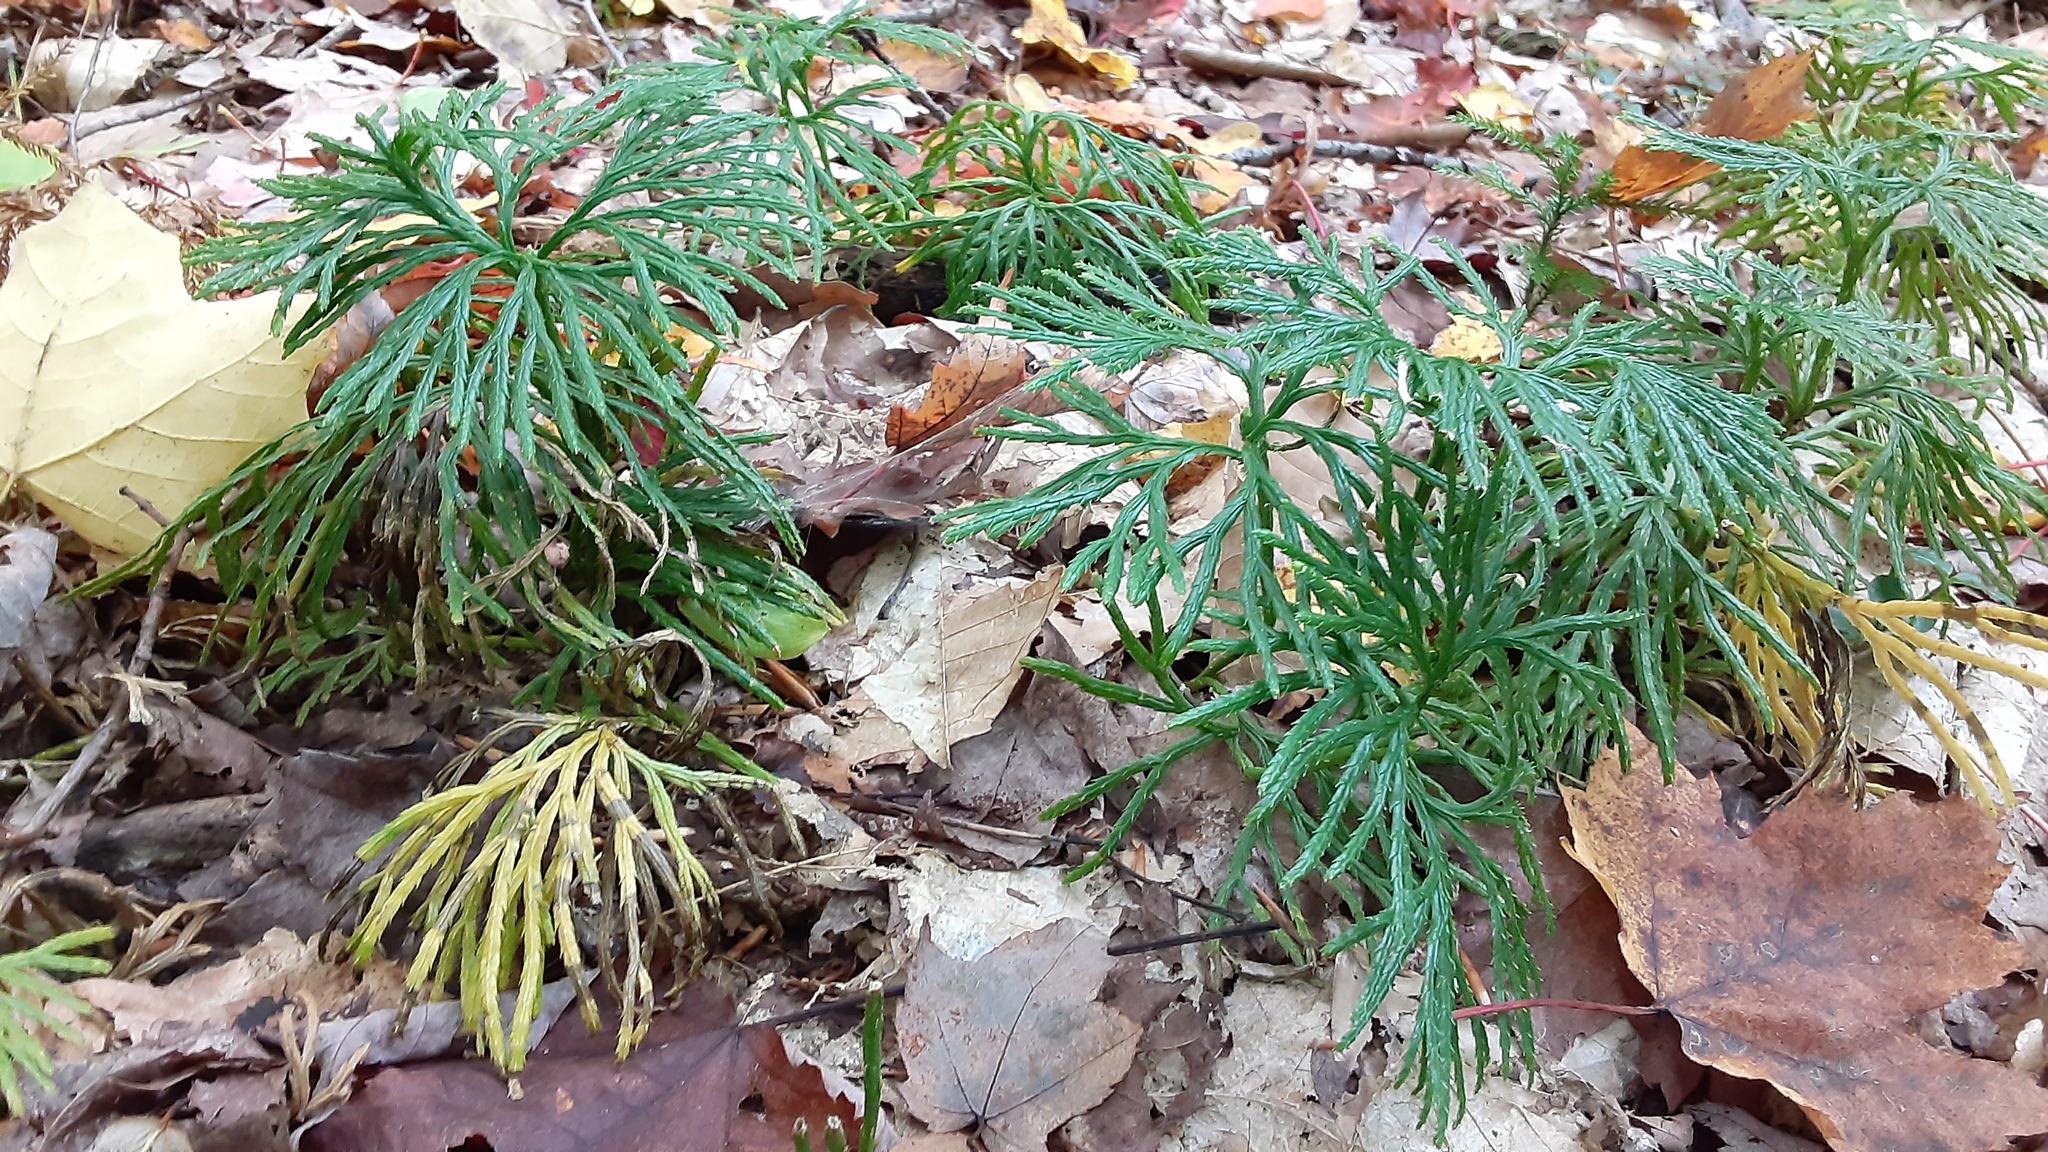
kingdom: Plantae
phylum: Tracheophyta
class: Lycopodiopsida
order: Lycopodiales
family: Lycopodiaceae
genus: Diphasiastrum
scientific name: Diphasiastrum digitatum
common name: Southern running-pine
